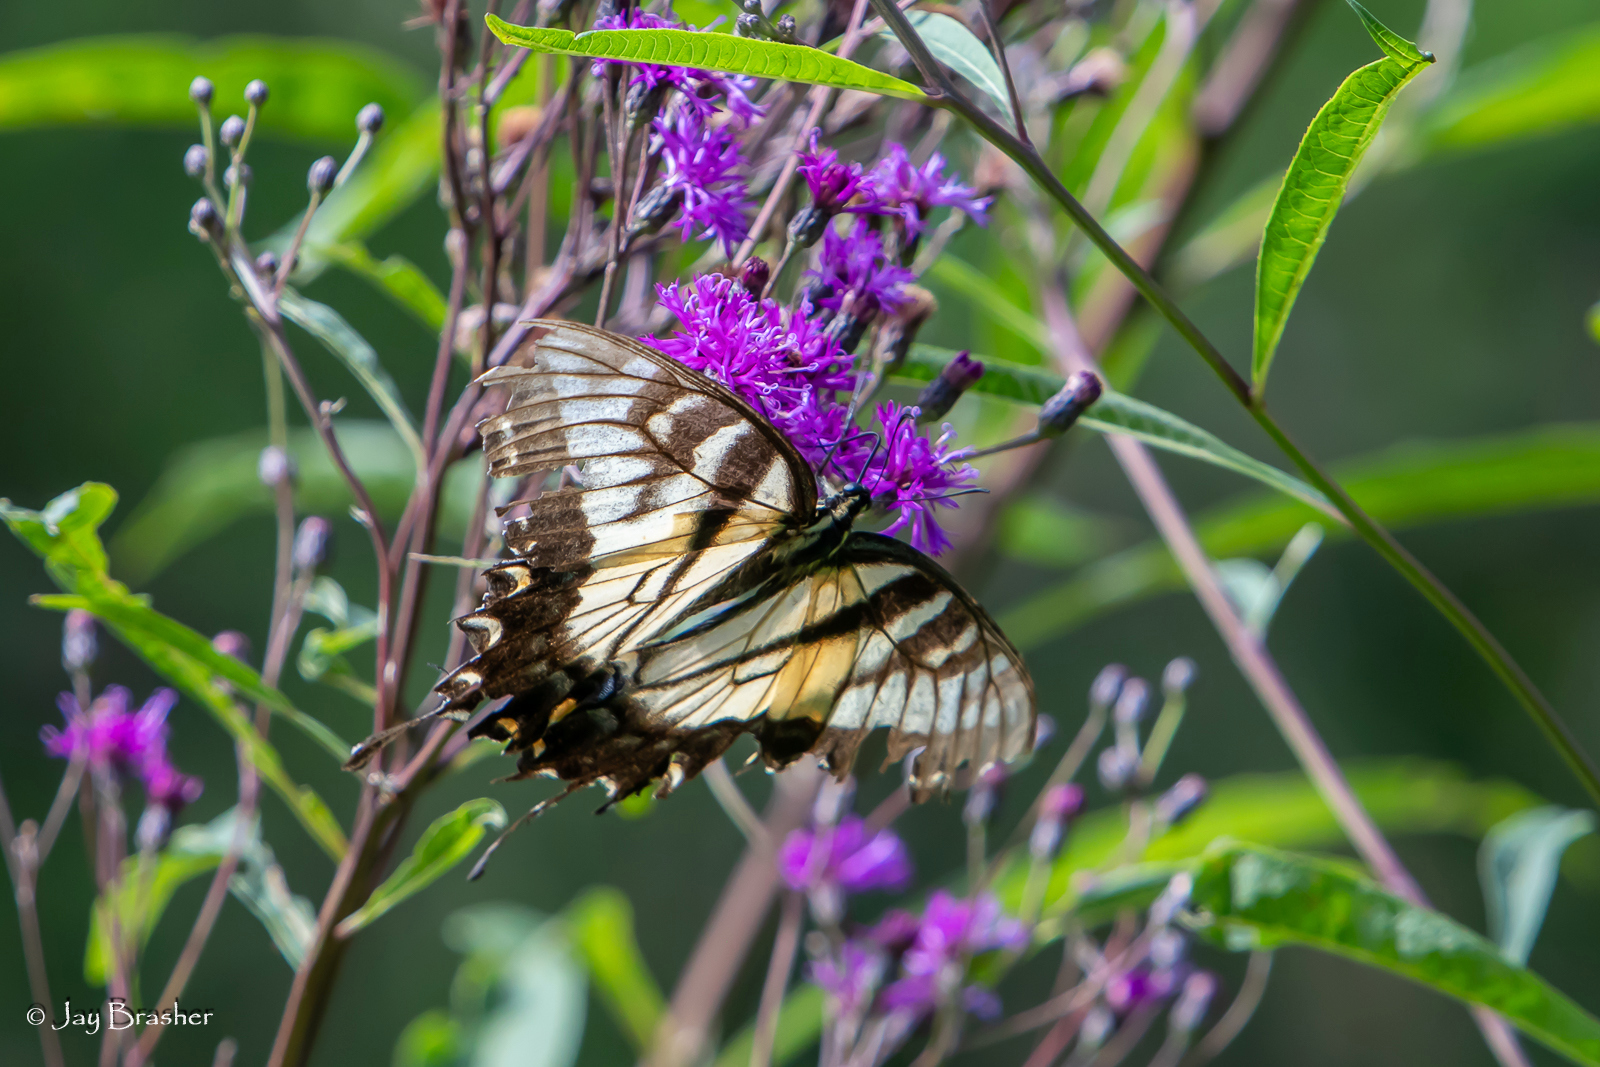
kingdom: Animalia
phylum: Arthropoda
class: Insecta
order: Lepidoptera
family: Papilionidae
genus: Papilio
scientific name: Papilio glaucus
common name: Tiger swallowtail
